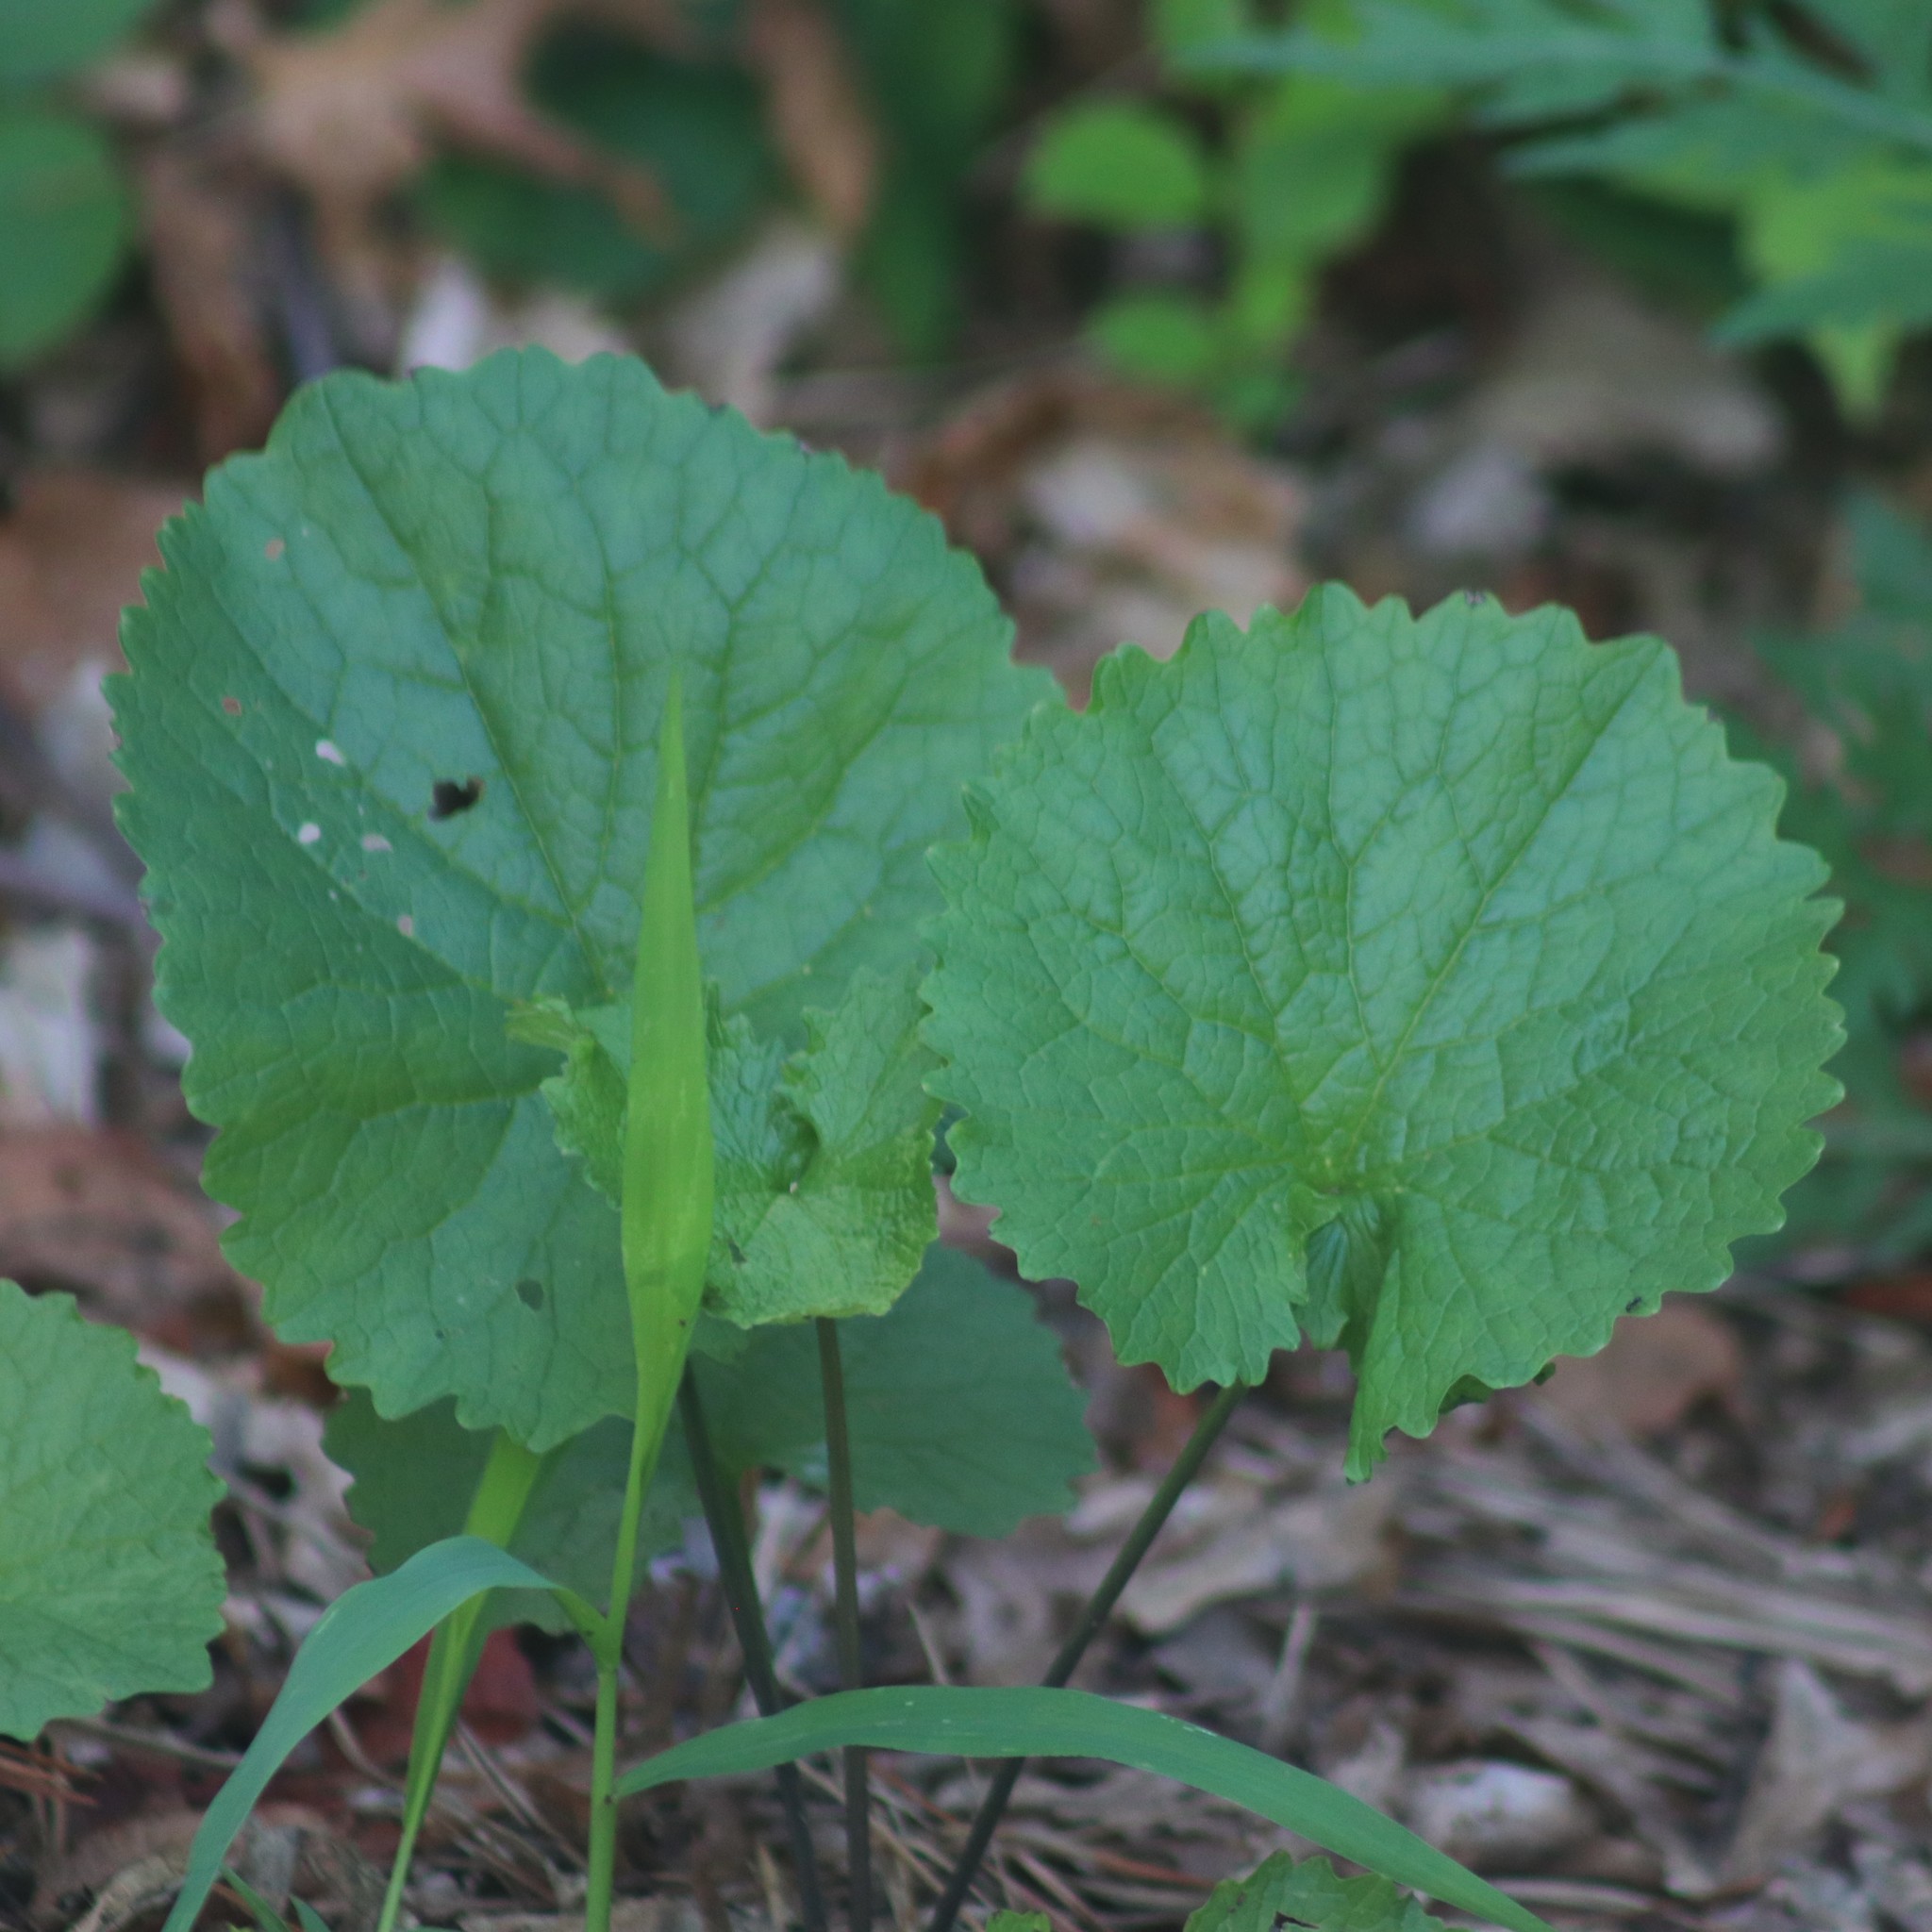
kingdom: Plantae
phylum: Tracheophyta
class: Magnoliopsida
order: Brassicales
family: Brassicaceae
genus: Alliaria
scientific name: Alliaria petiolata
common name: Garlic mustard
